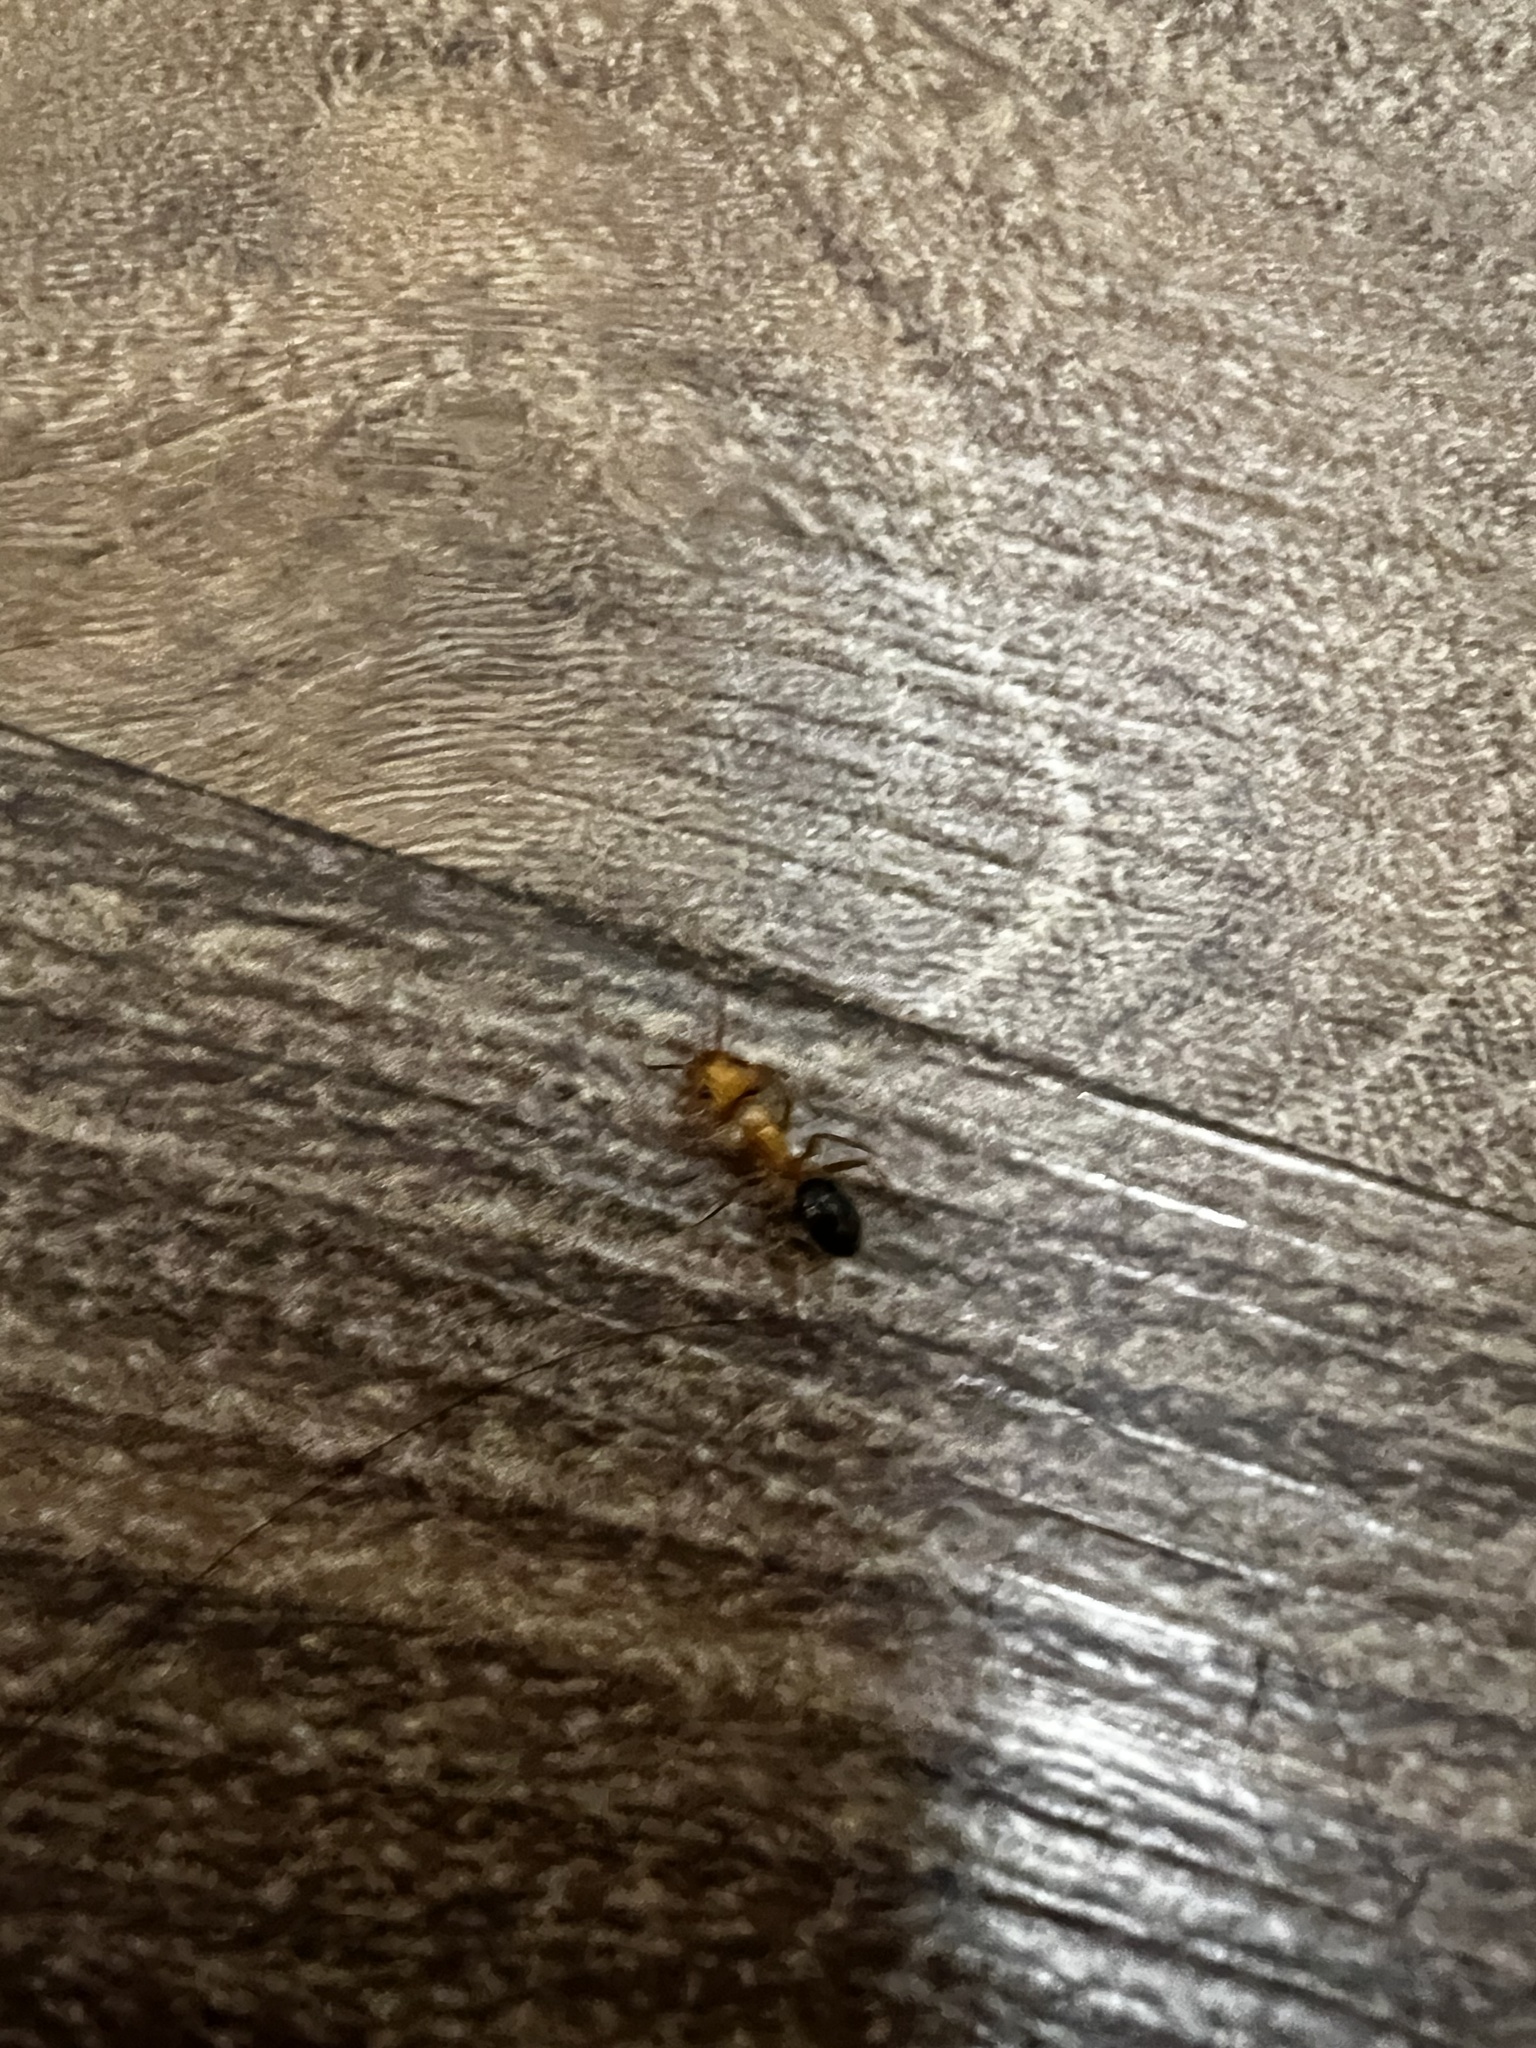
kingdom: Animalia
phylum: Arthropoda
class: Insecta
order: Hymenoptera
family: Formicidae
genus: Camponotus
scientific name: Camponotus floridanus
